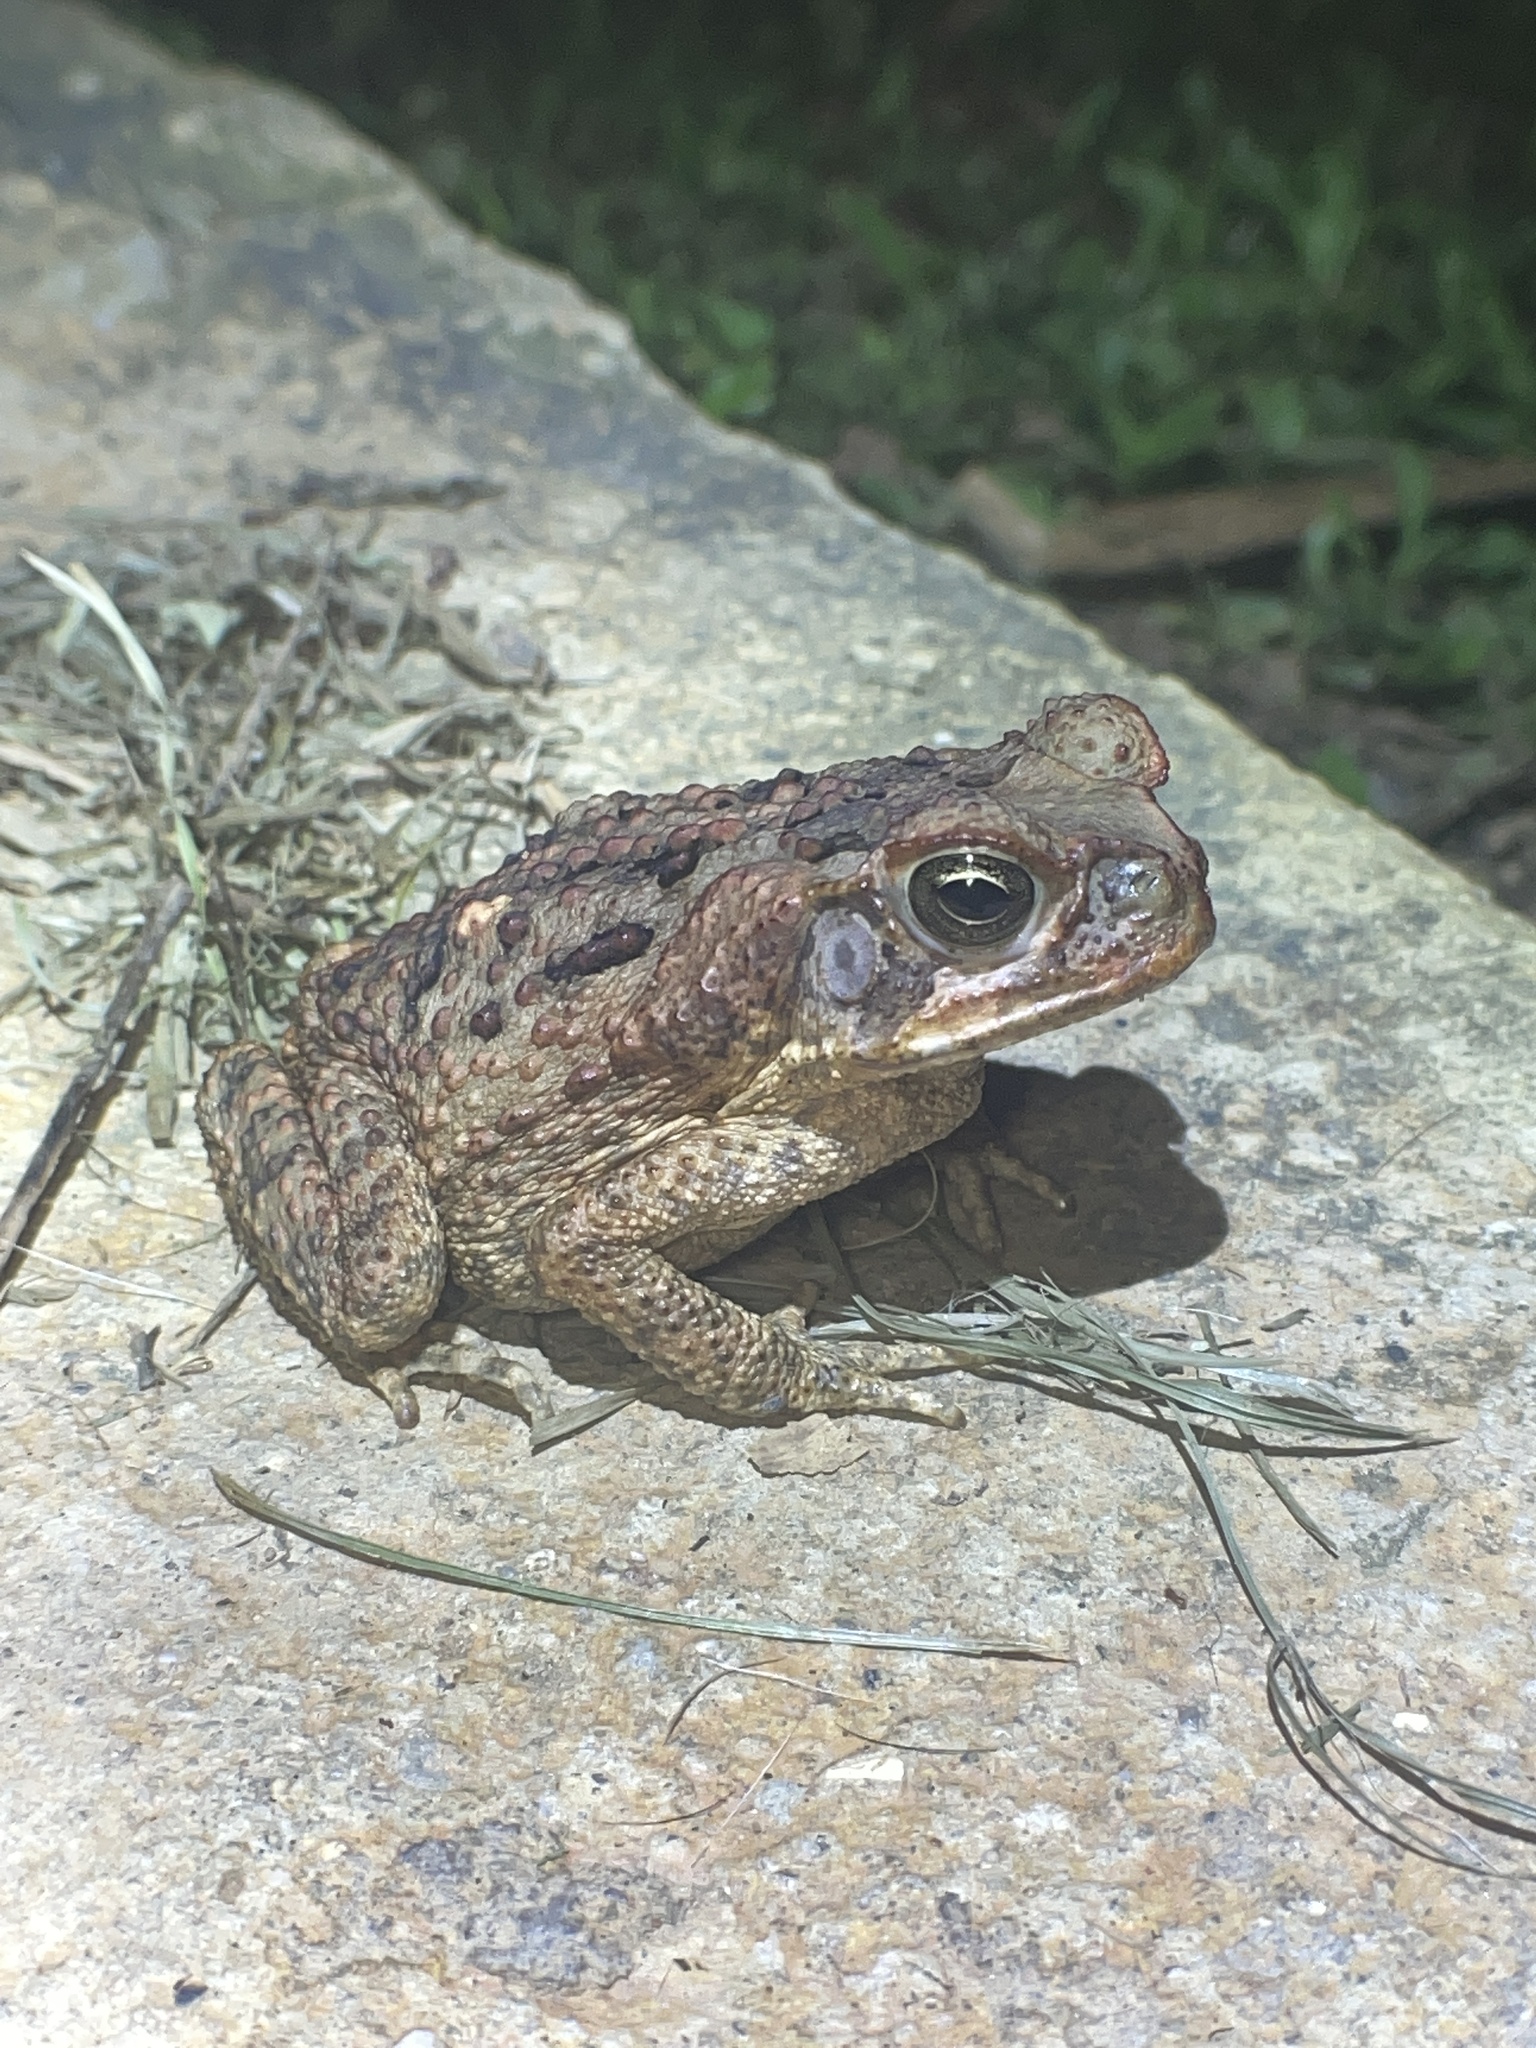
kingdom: Animalia
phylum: Chordata
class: Amphibia
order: Anura
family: Bufonidae
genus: Rhinella
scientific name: Rhinella marina
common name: Cane toad
